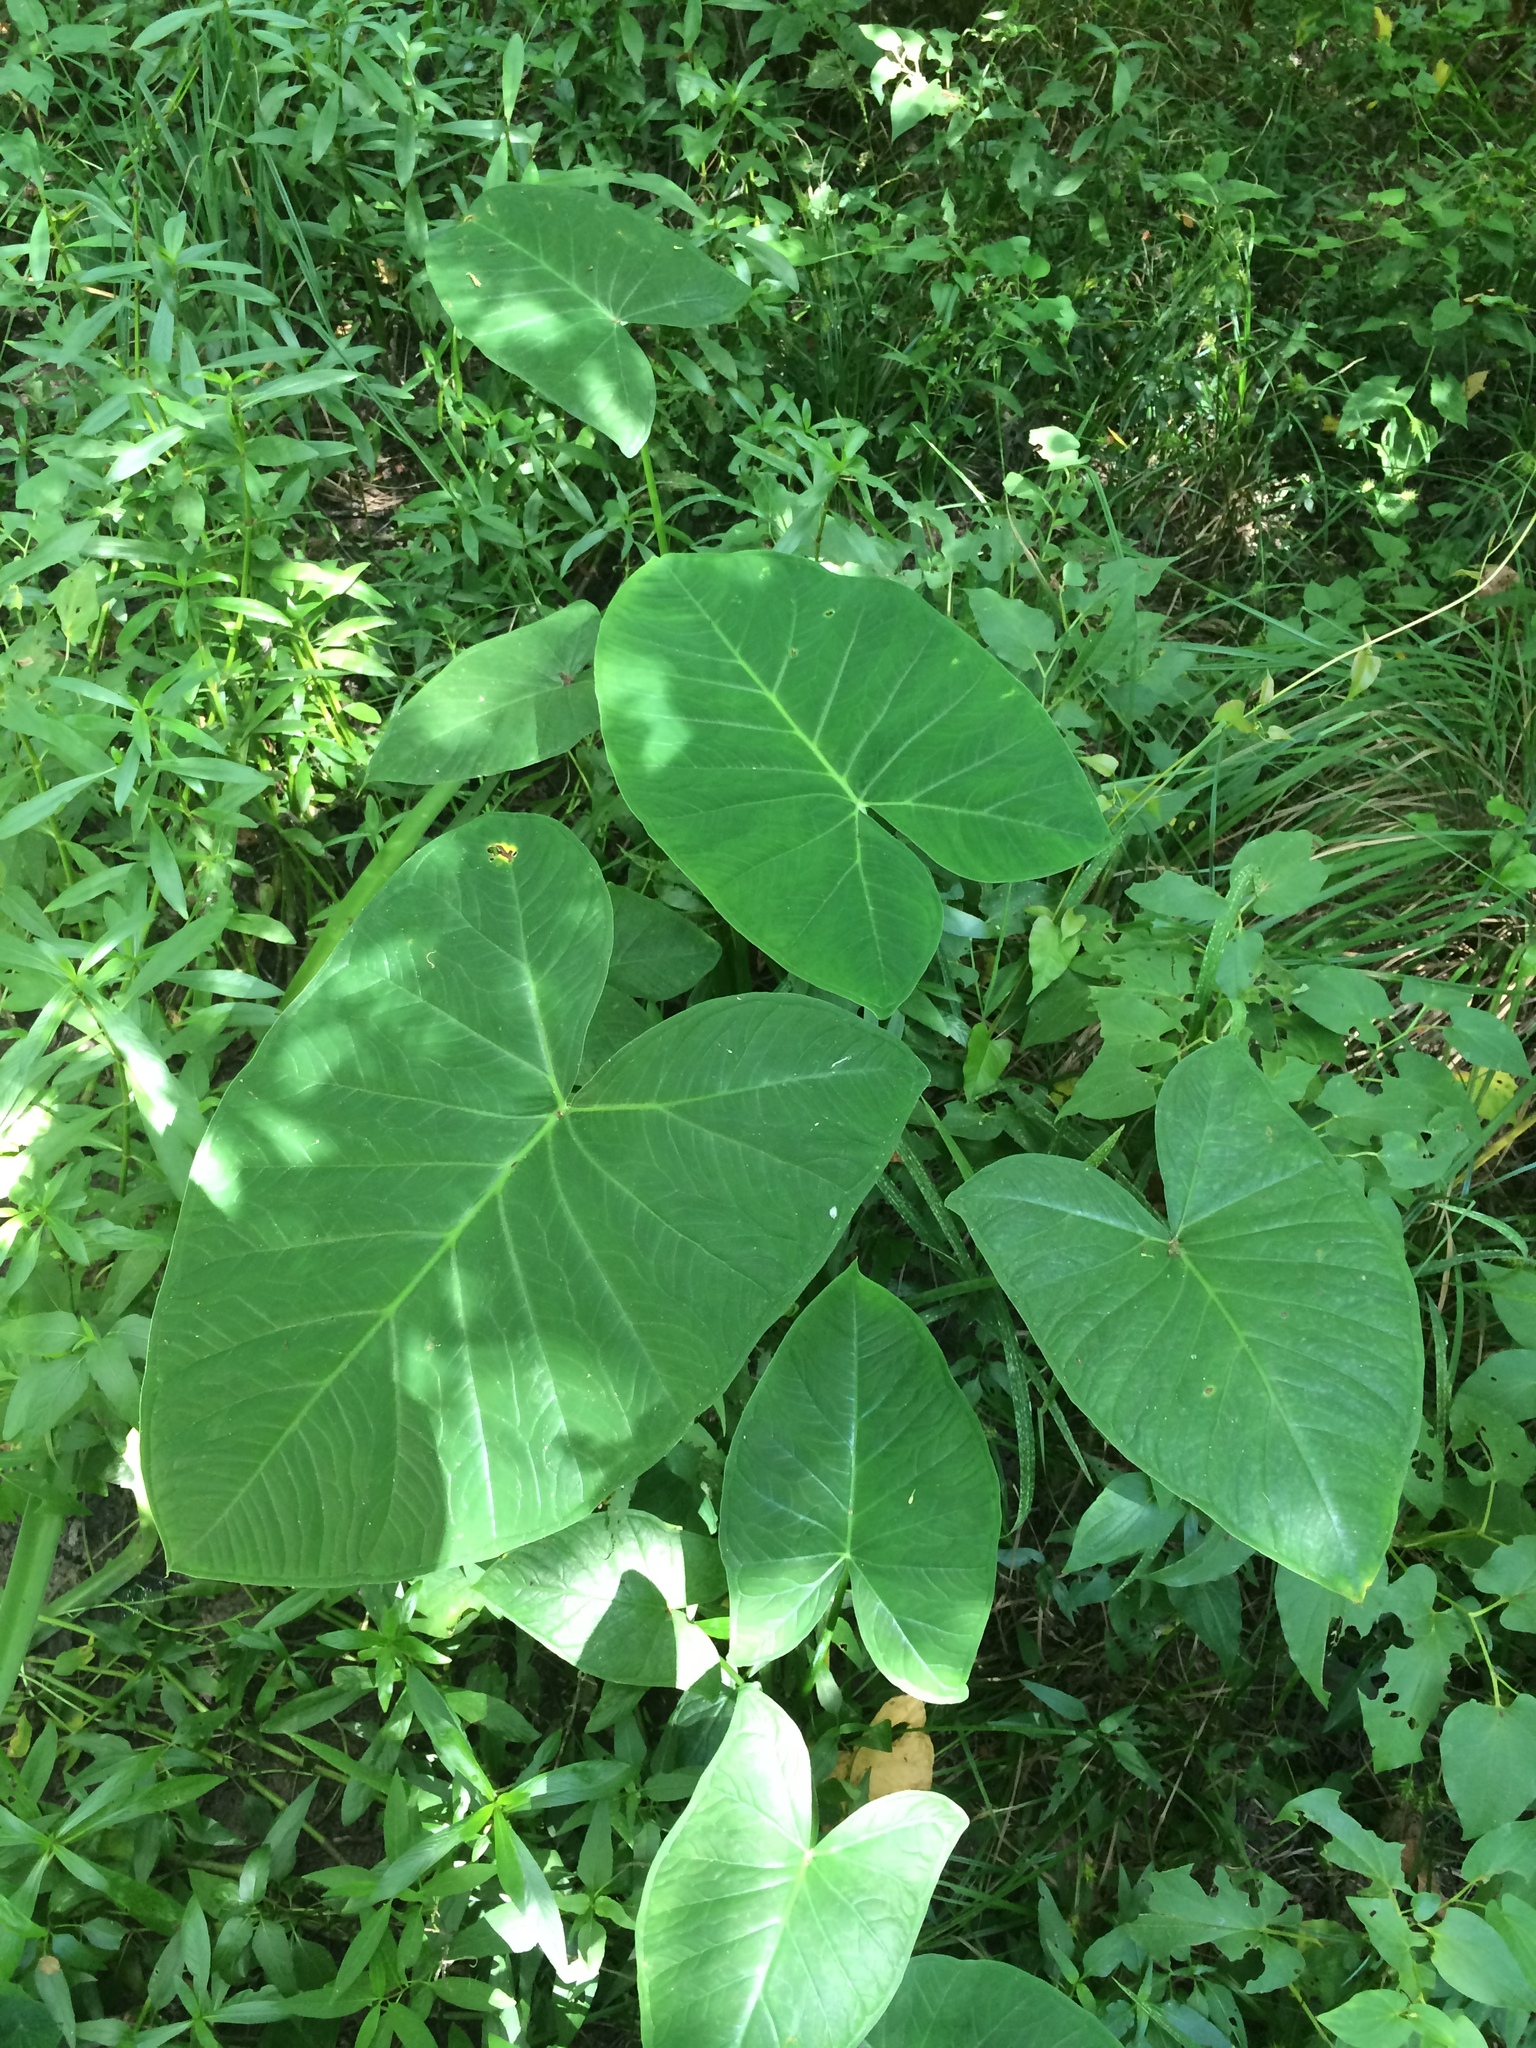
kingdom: Plantae
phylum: Tracheophyta
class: Liliopsida
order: Alismatales
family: Araceae
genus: Xanthosoma
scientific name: Xanthosoma sagittifolium
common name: Arrowleaf elephant's ear
